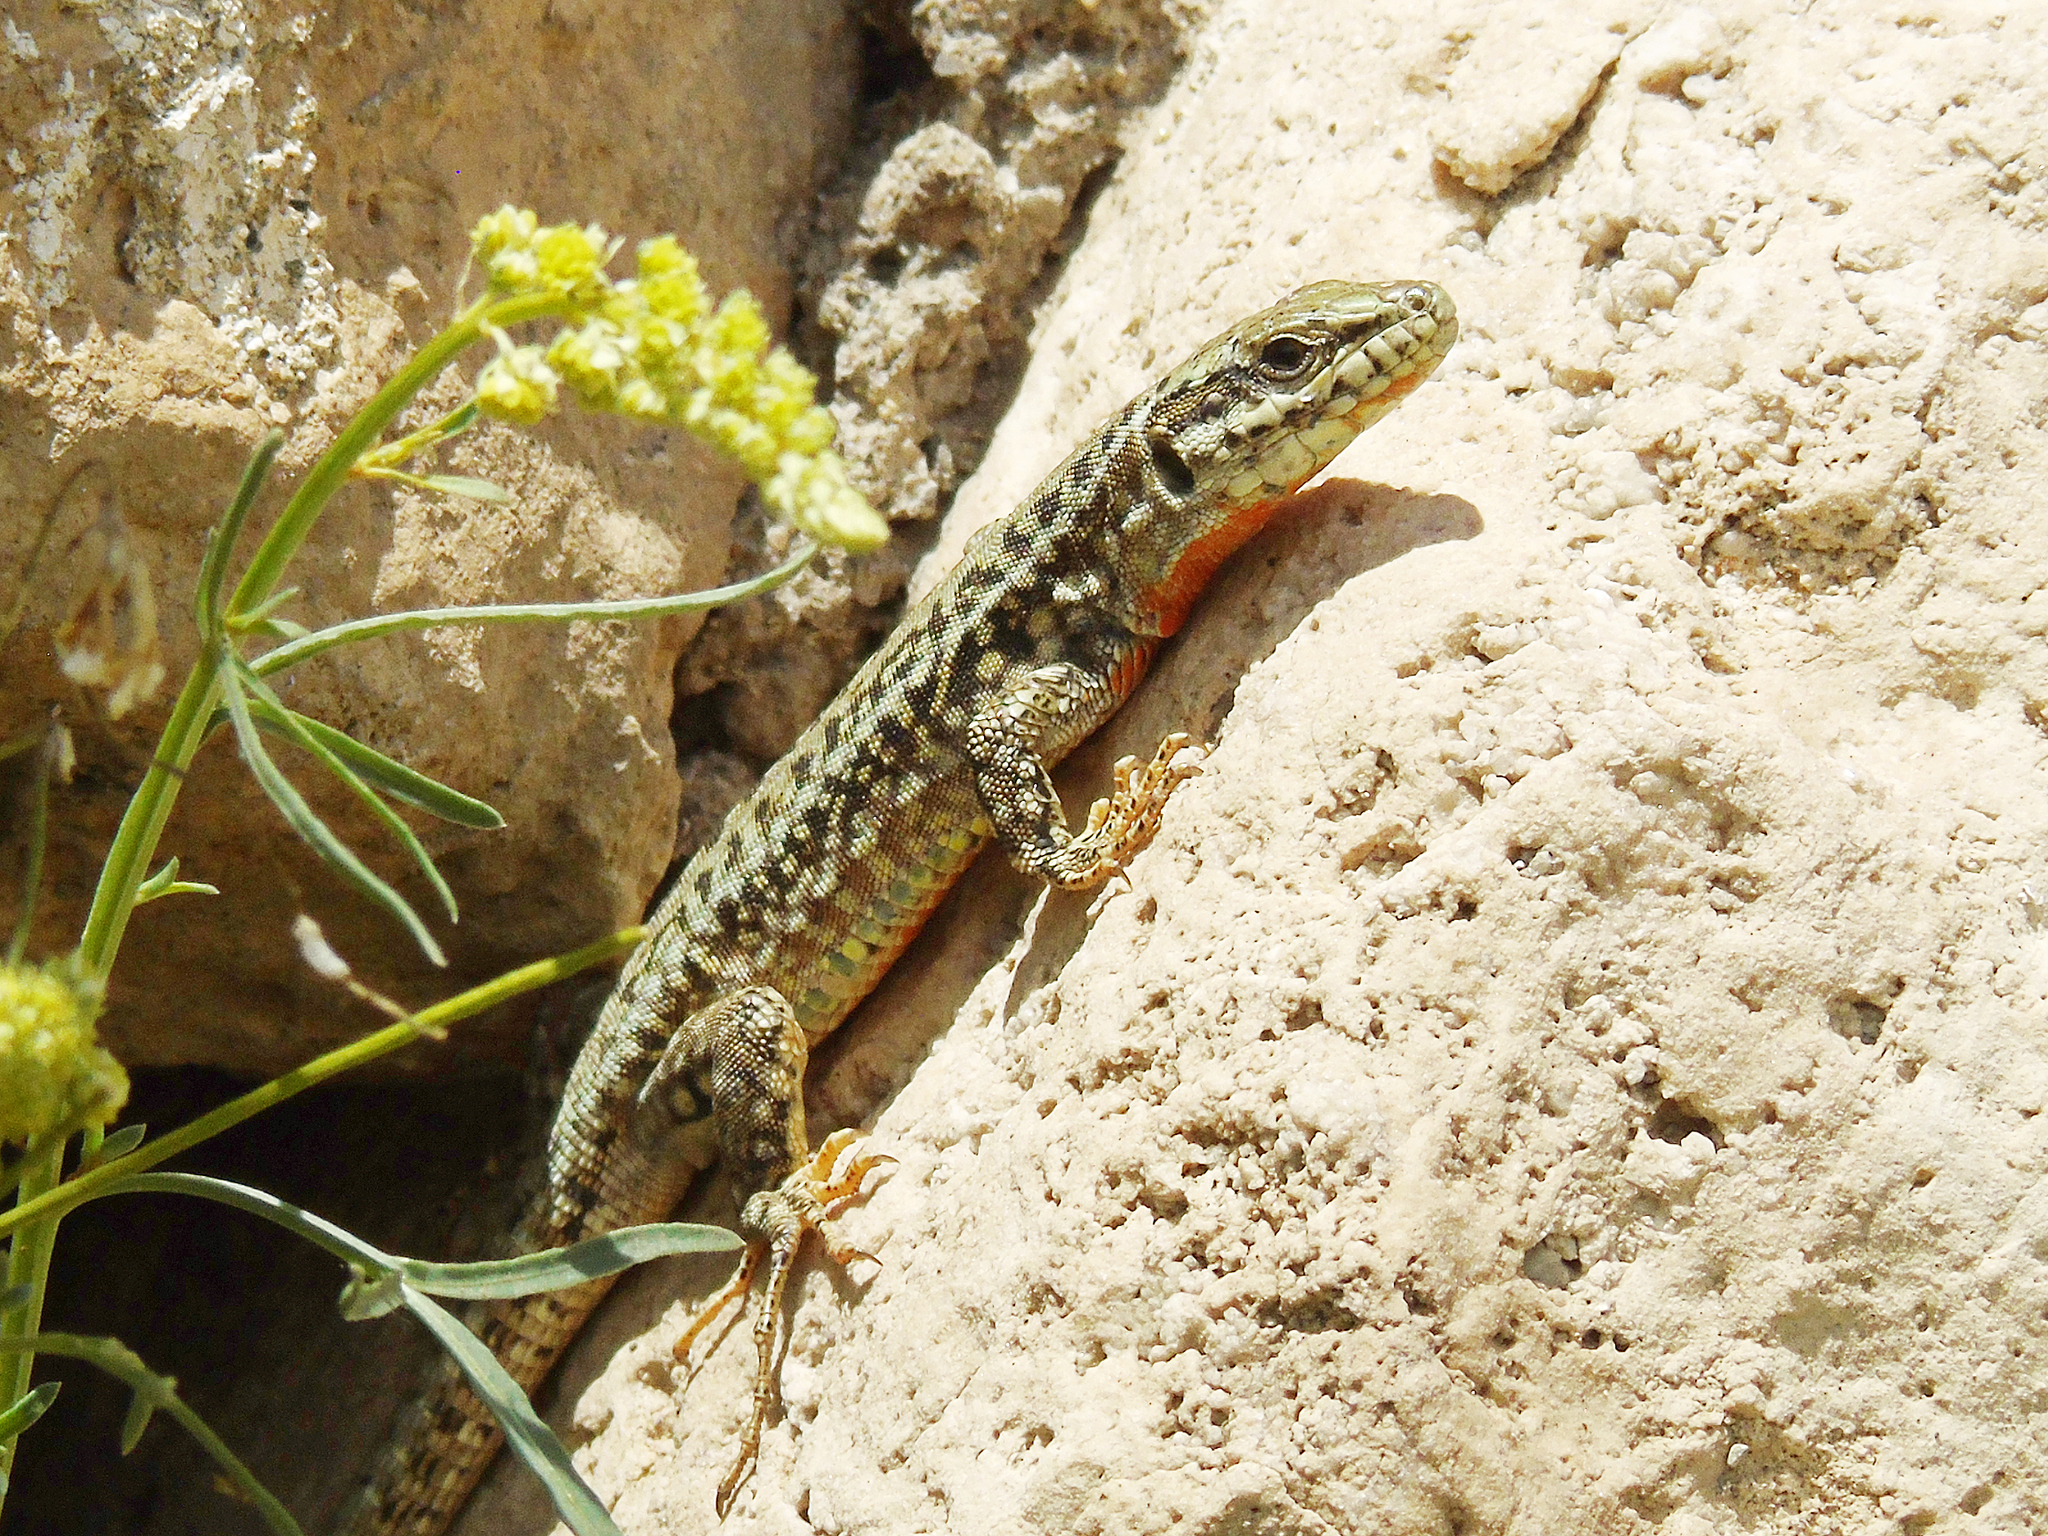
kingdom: Animalia
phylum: Chordata
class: Squamata
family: Lacertidae
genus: Podarcis
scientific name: Podarcis erhardii
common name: Erhard's wall lizard
